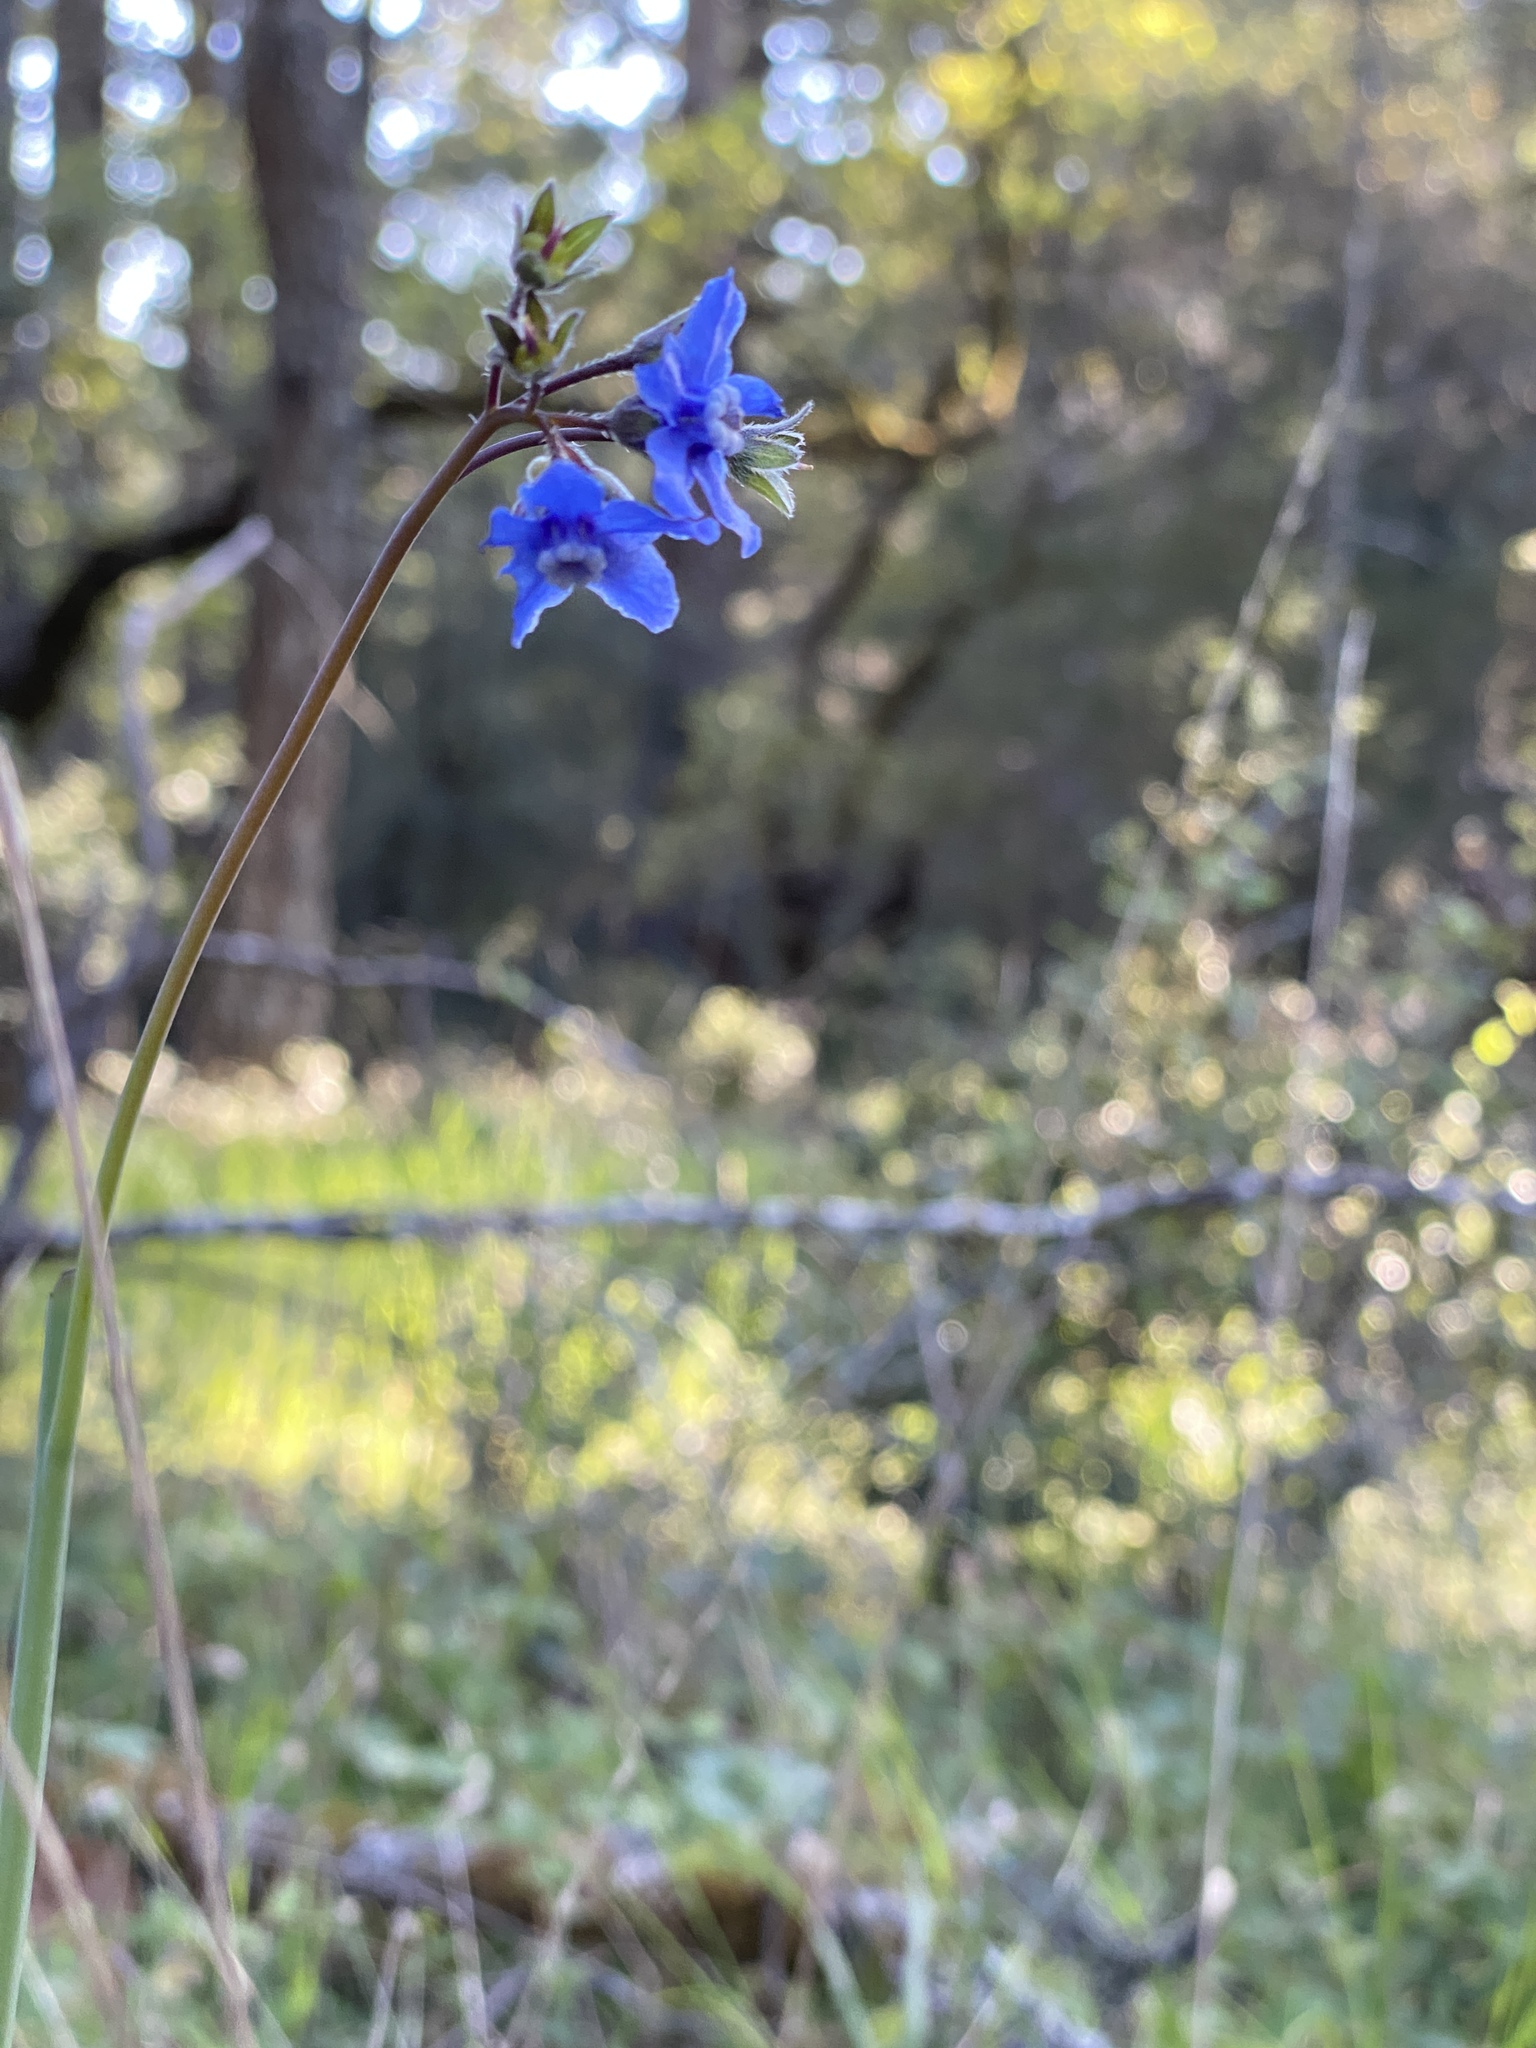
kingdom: Plantae
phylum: Tracheophyta
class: Magnoliopsida
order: Boraginales
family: Boraginaceae
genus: Adelinia
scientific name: Adelinia grande
